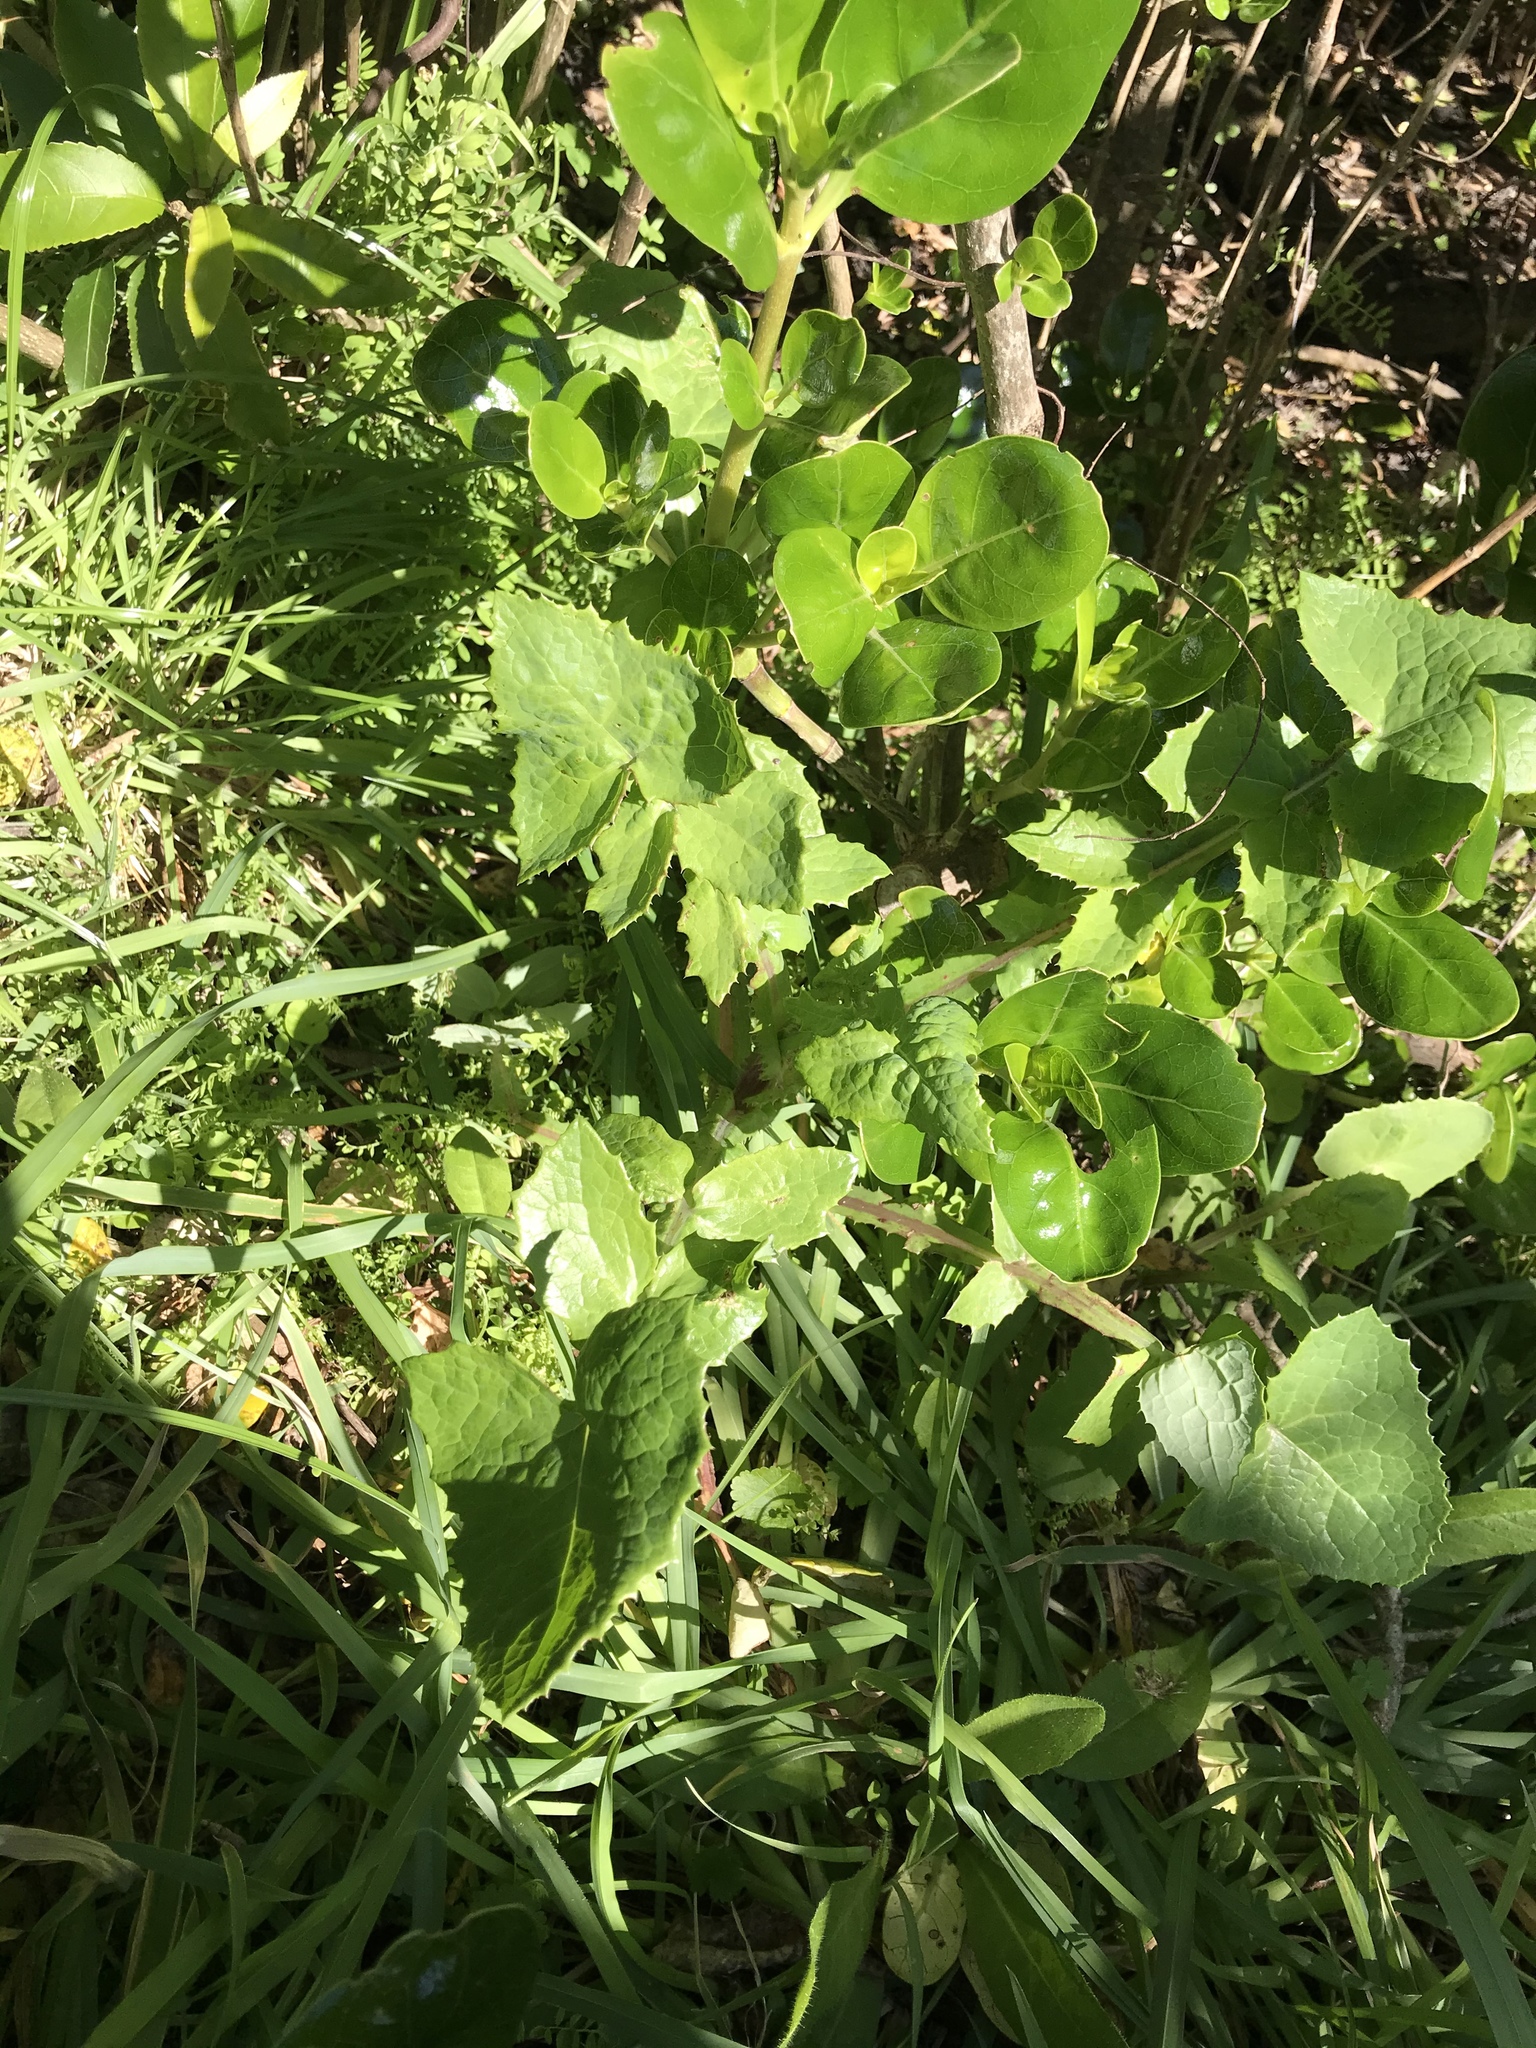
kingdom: Plantae
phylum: Tracheophyta
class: Magnoliopsida
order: Asterales
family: Asteraceae
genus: Sonchus
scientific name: Sonchus oleraceus
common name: Common sowthistle
